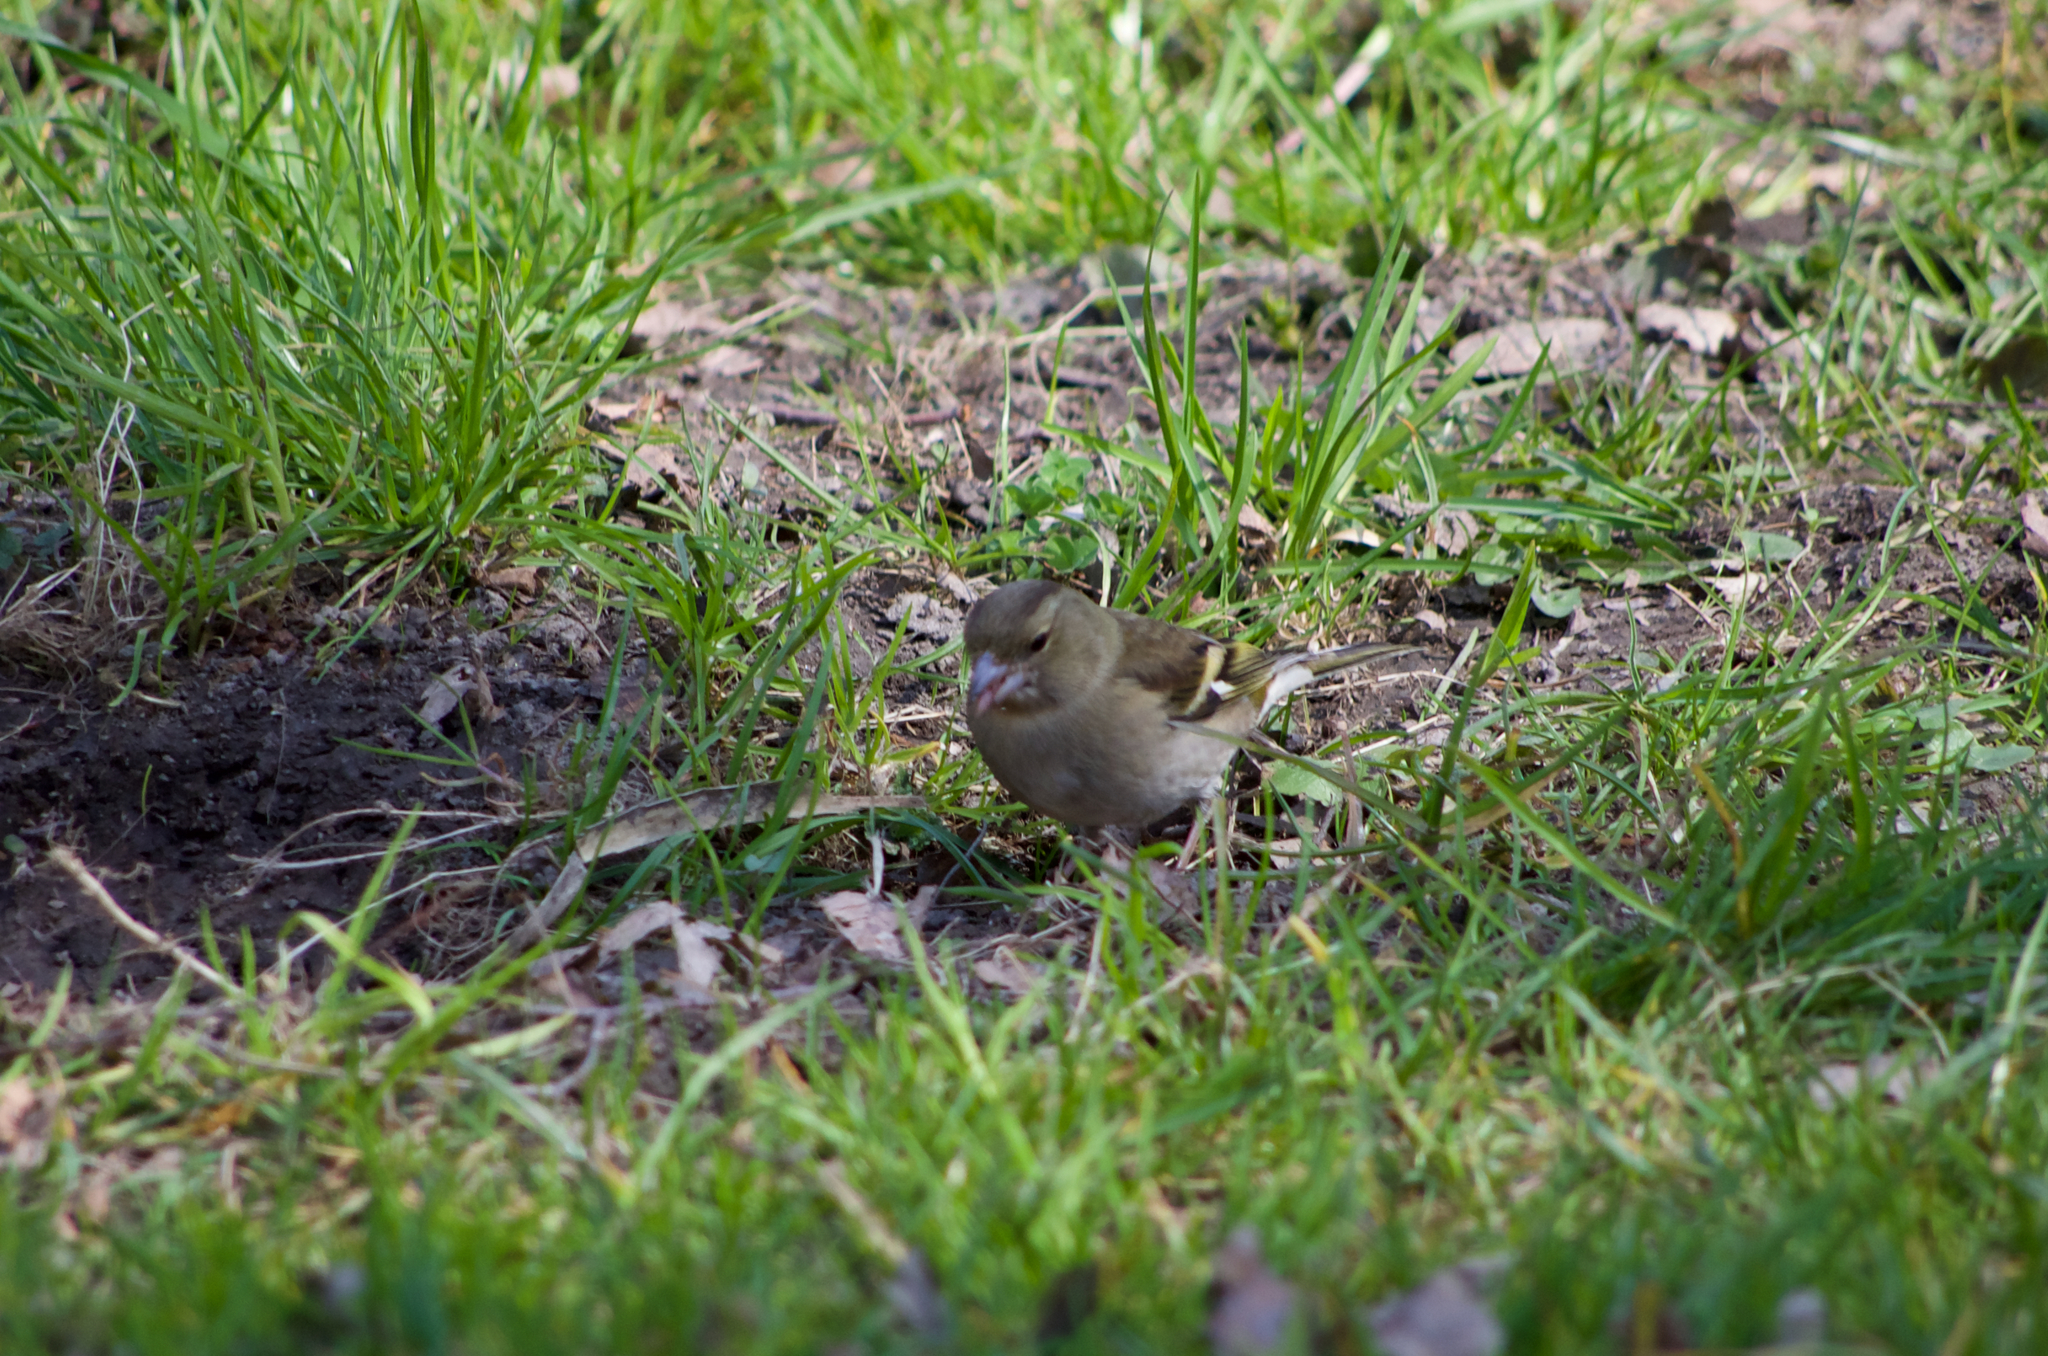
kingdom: Animalia
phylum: Chordata
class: Aves
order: Passeriformes
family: Fringillidae
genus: Fringilla
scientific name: Fringilla coelebs
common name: Common chaffinch
